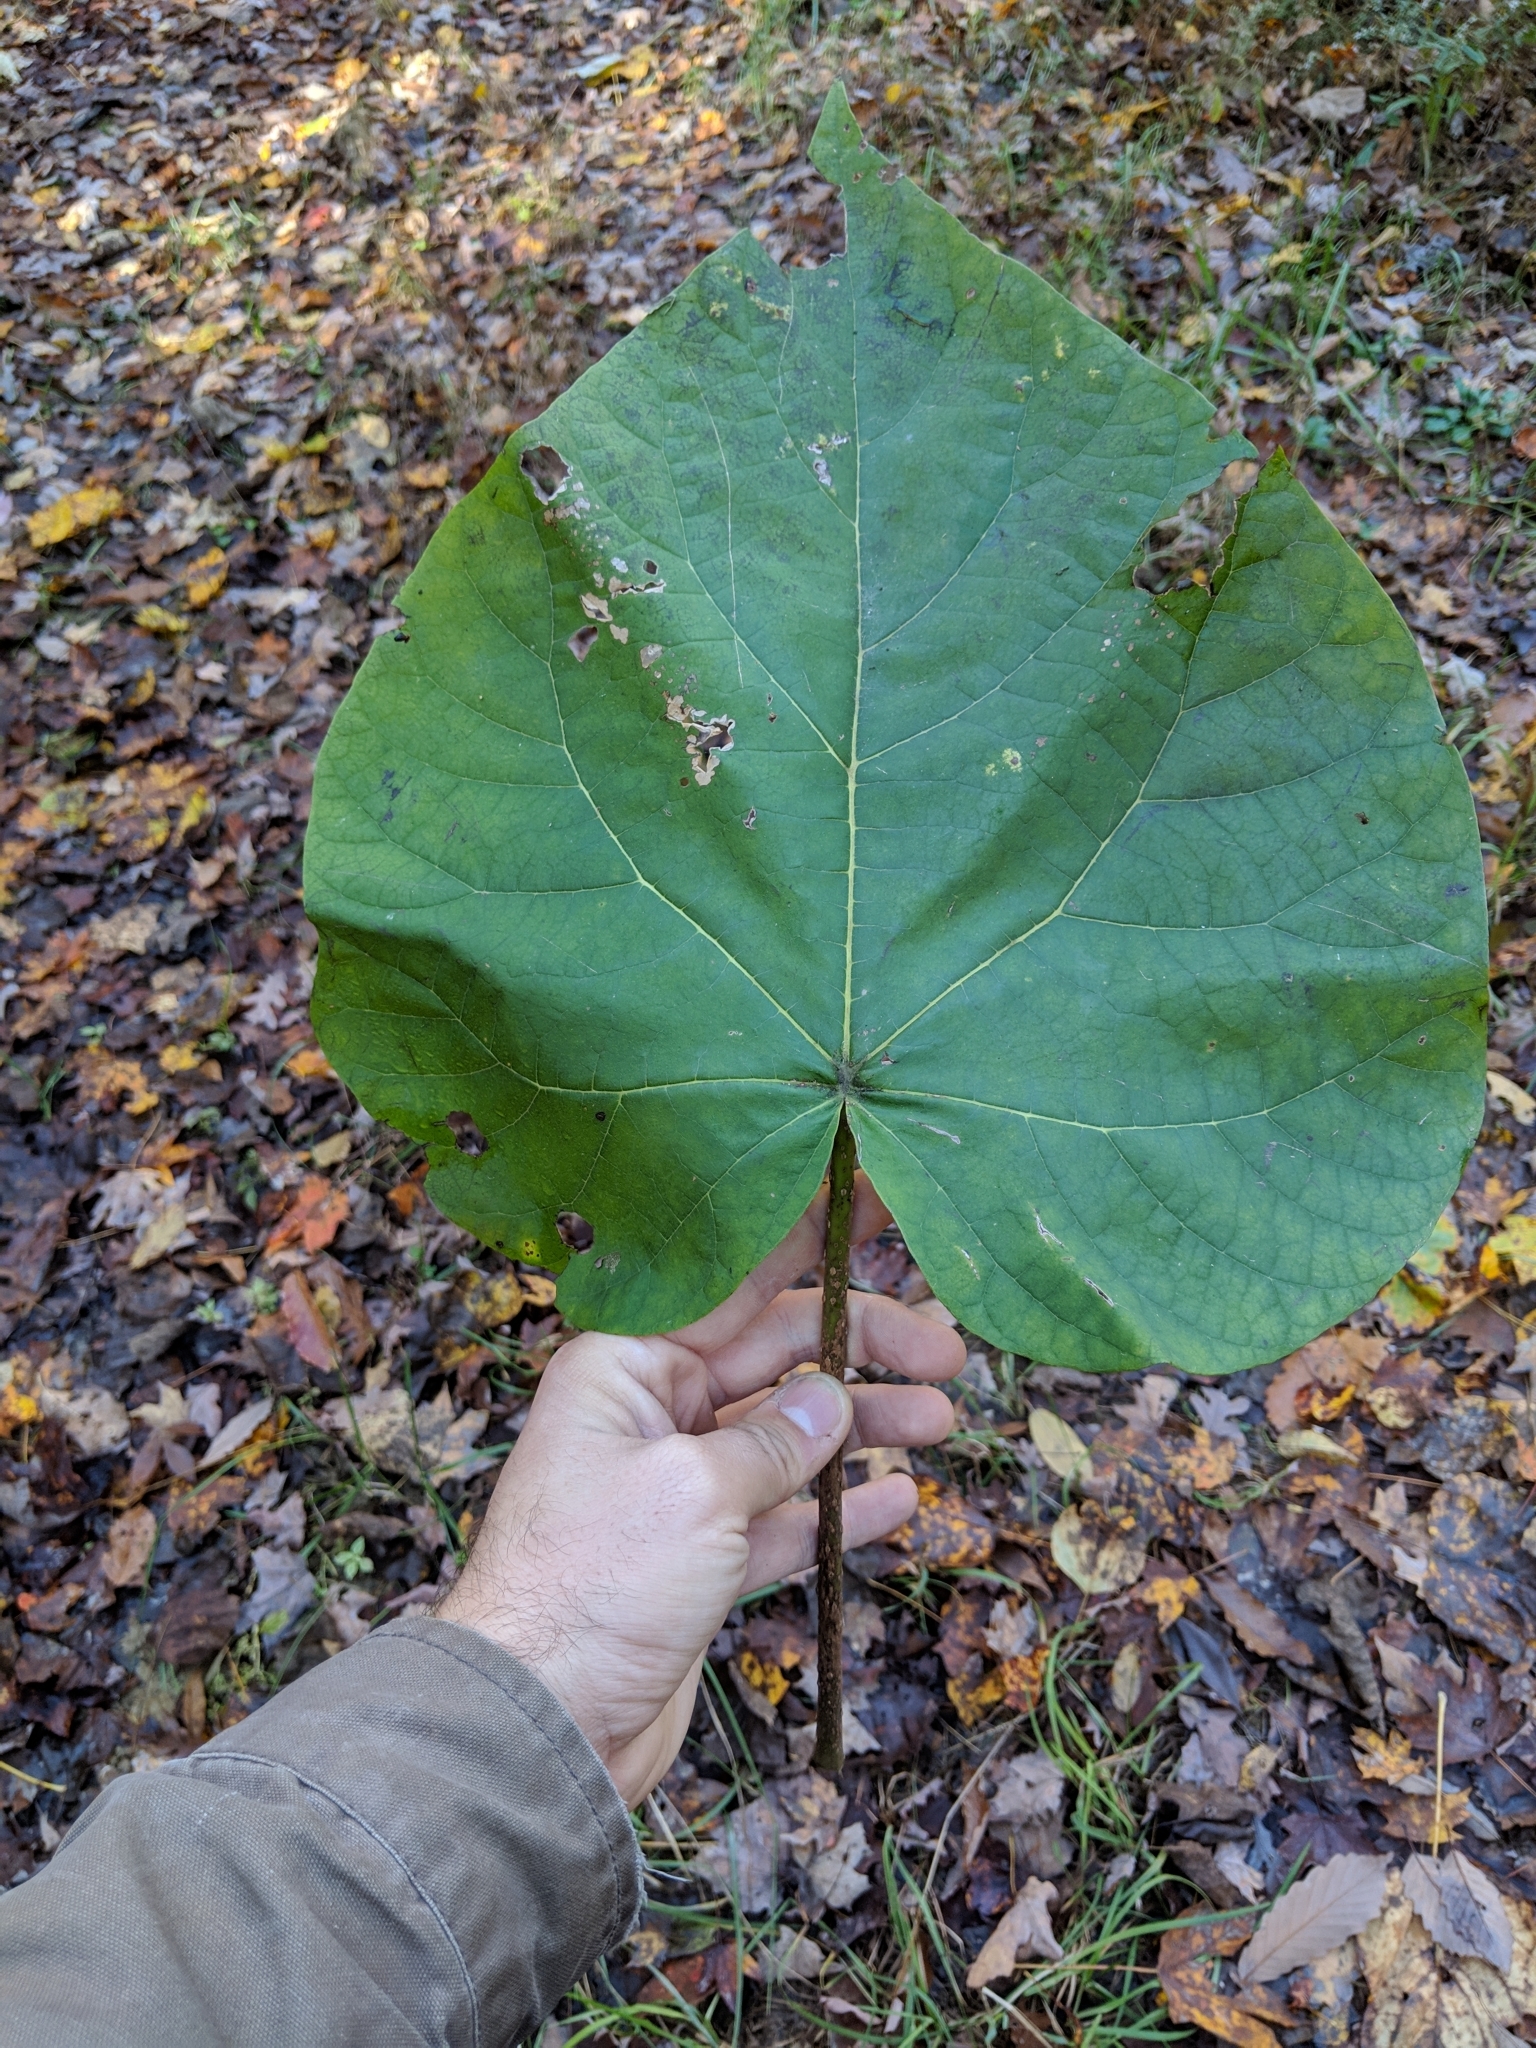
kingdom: Plantae
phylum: Tracheophyta
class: Magnoliopsida
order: Lamiales
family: Paulowniaceae
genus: Paulownia
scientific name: Paulownia tomentosa
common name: Foxglove-tree
